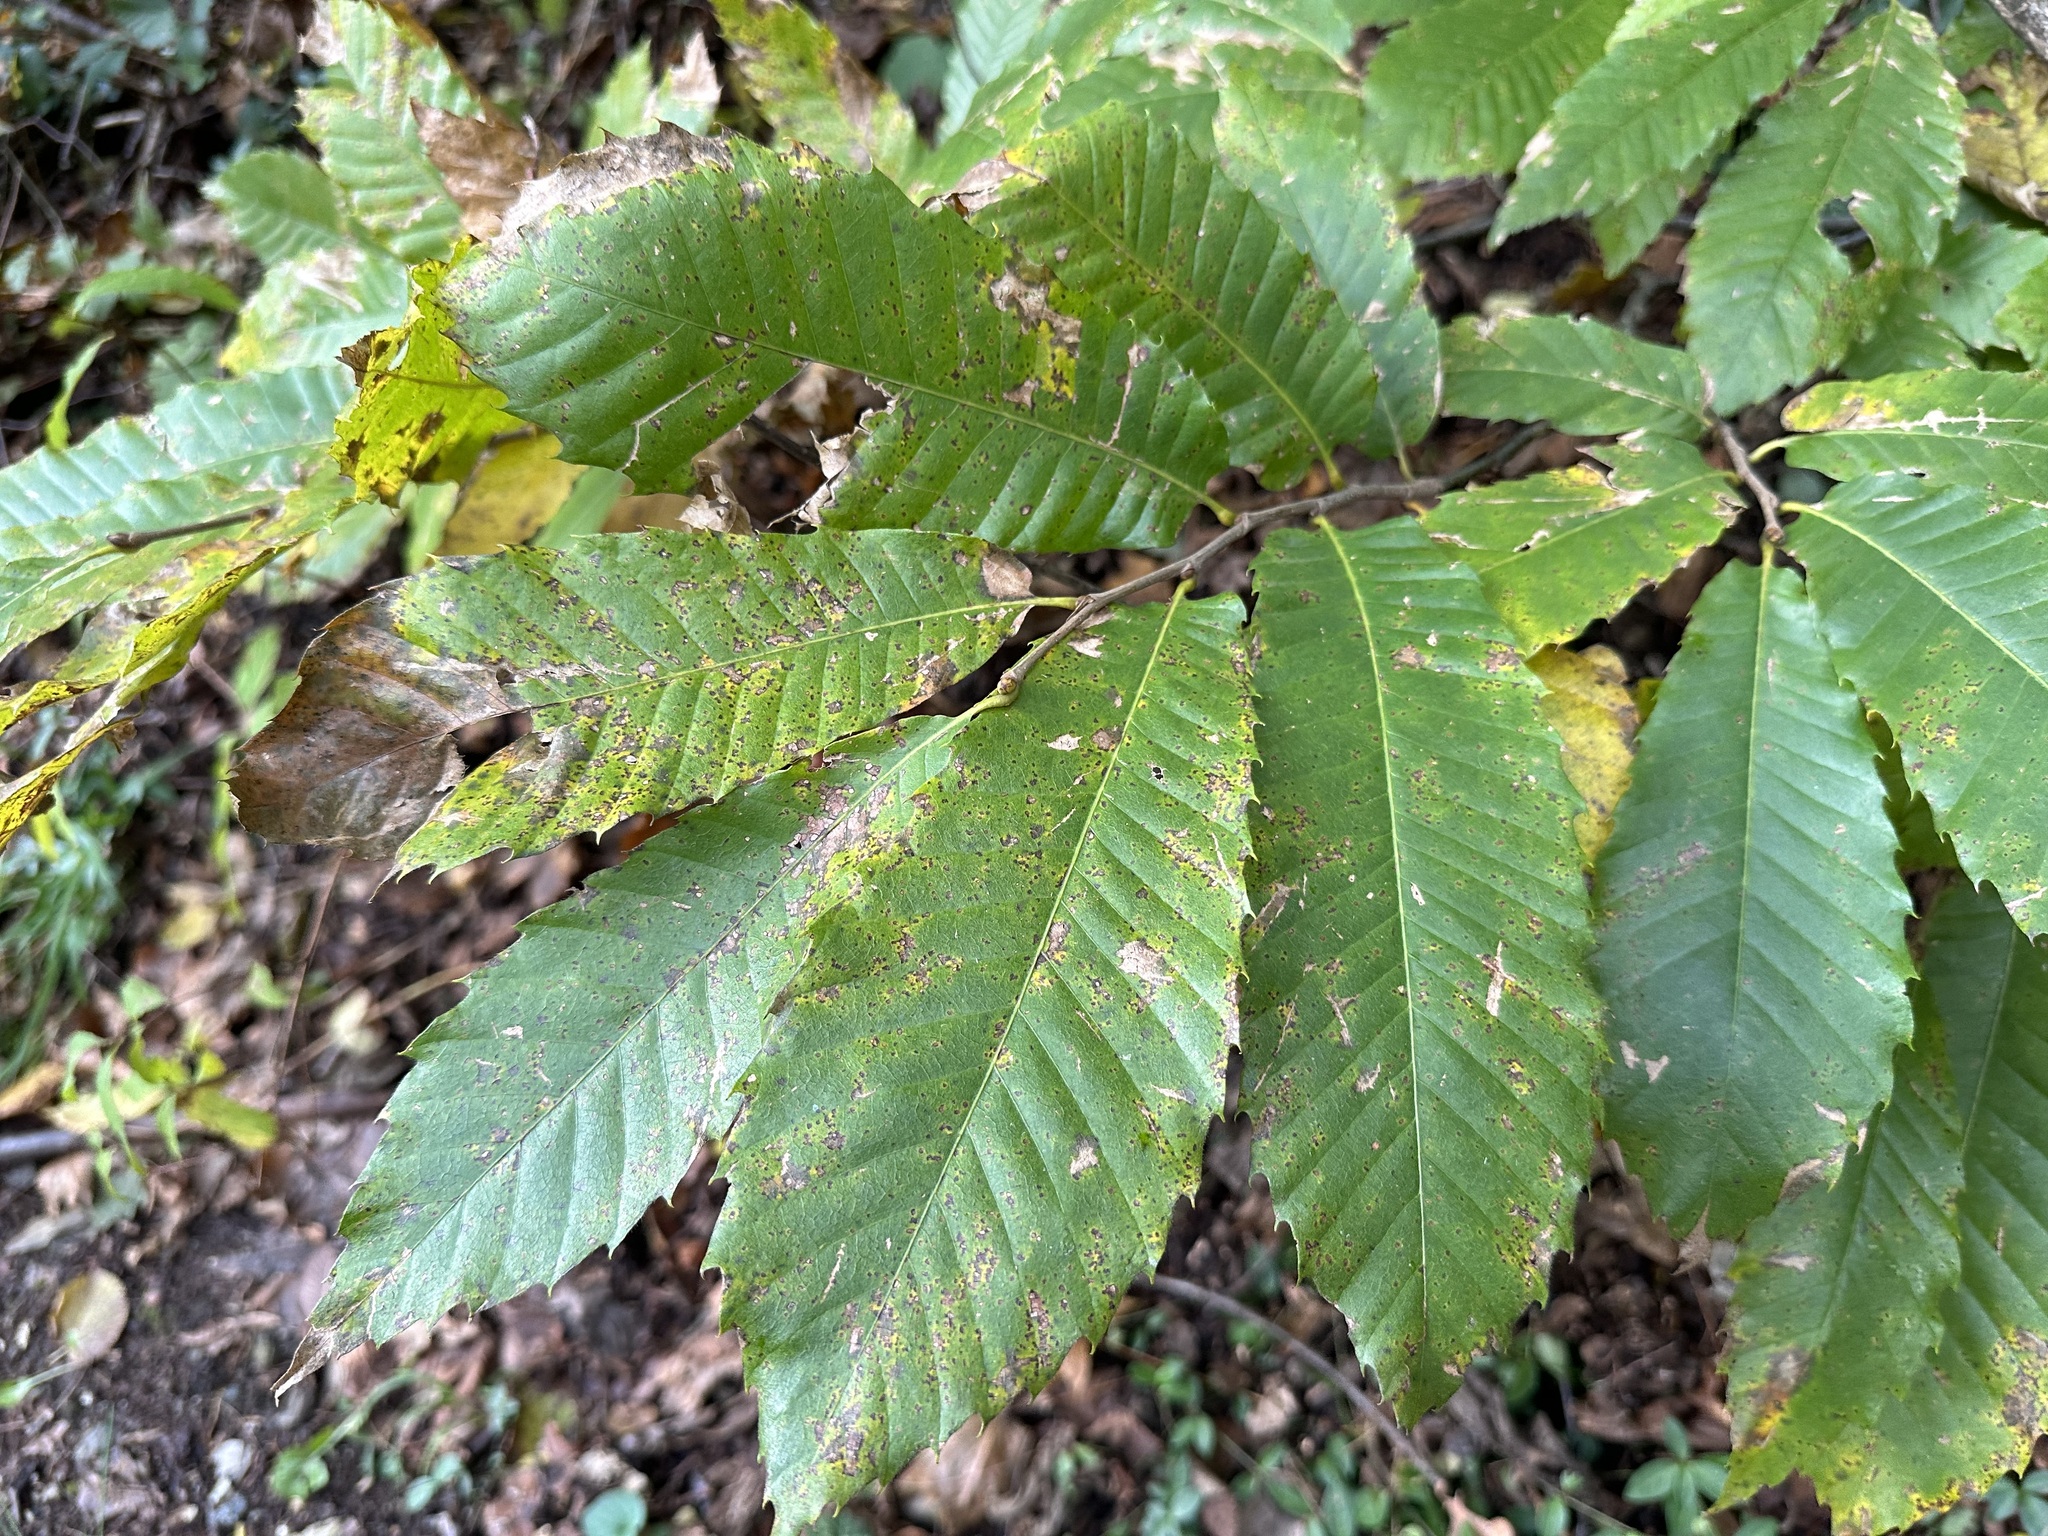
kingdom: Plantae
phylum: Tracheophyta
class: Magnoliopsida
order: Fagales
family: Fagaceae
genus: Castanea
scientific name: Castanea sativa
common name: Sweet chestnut
